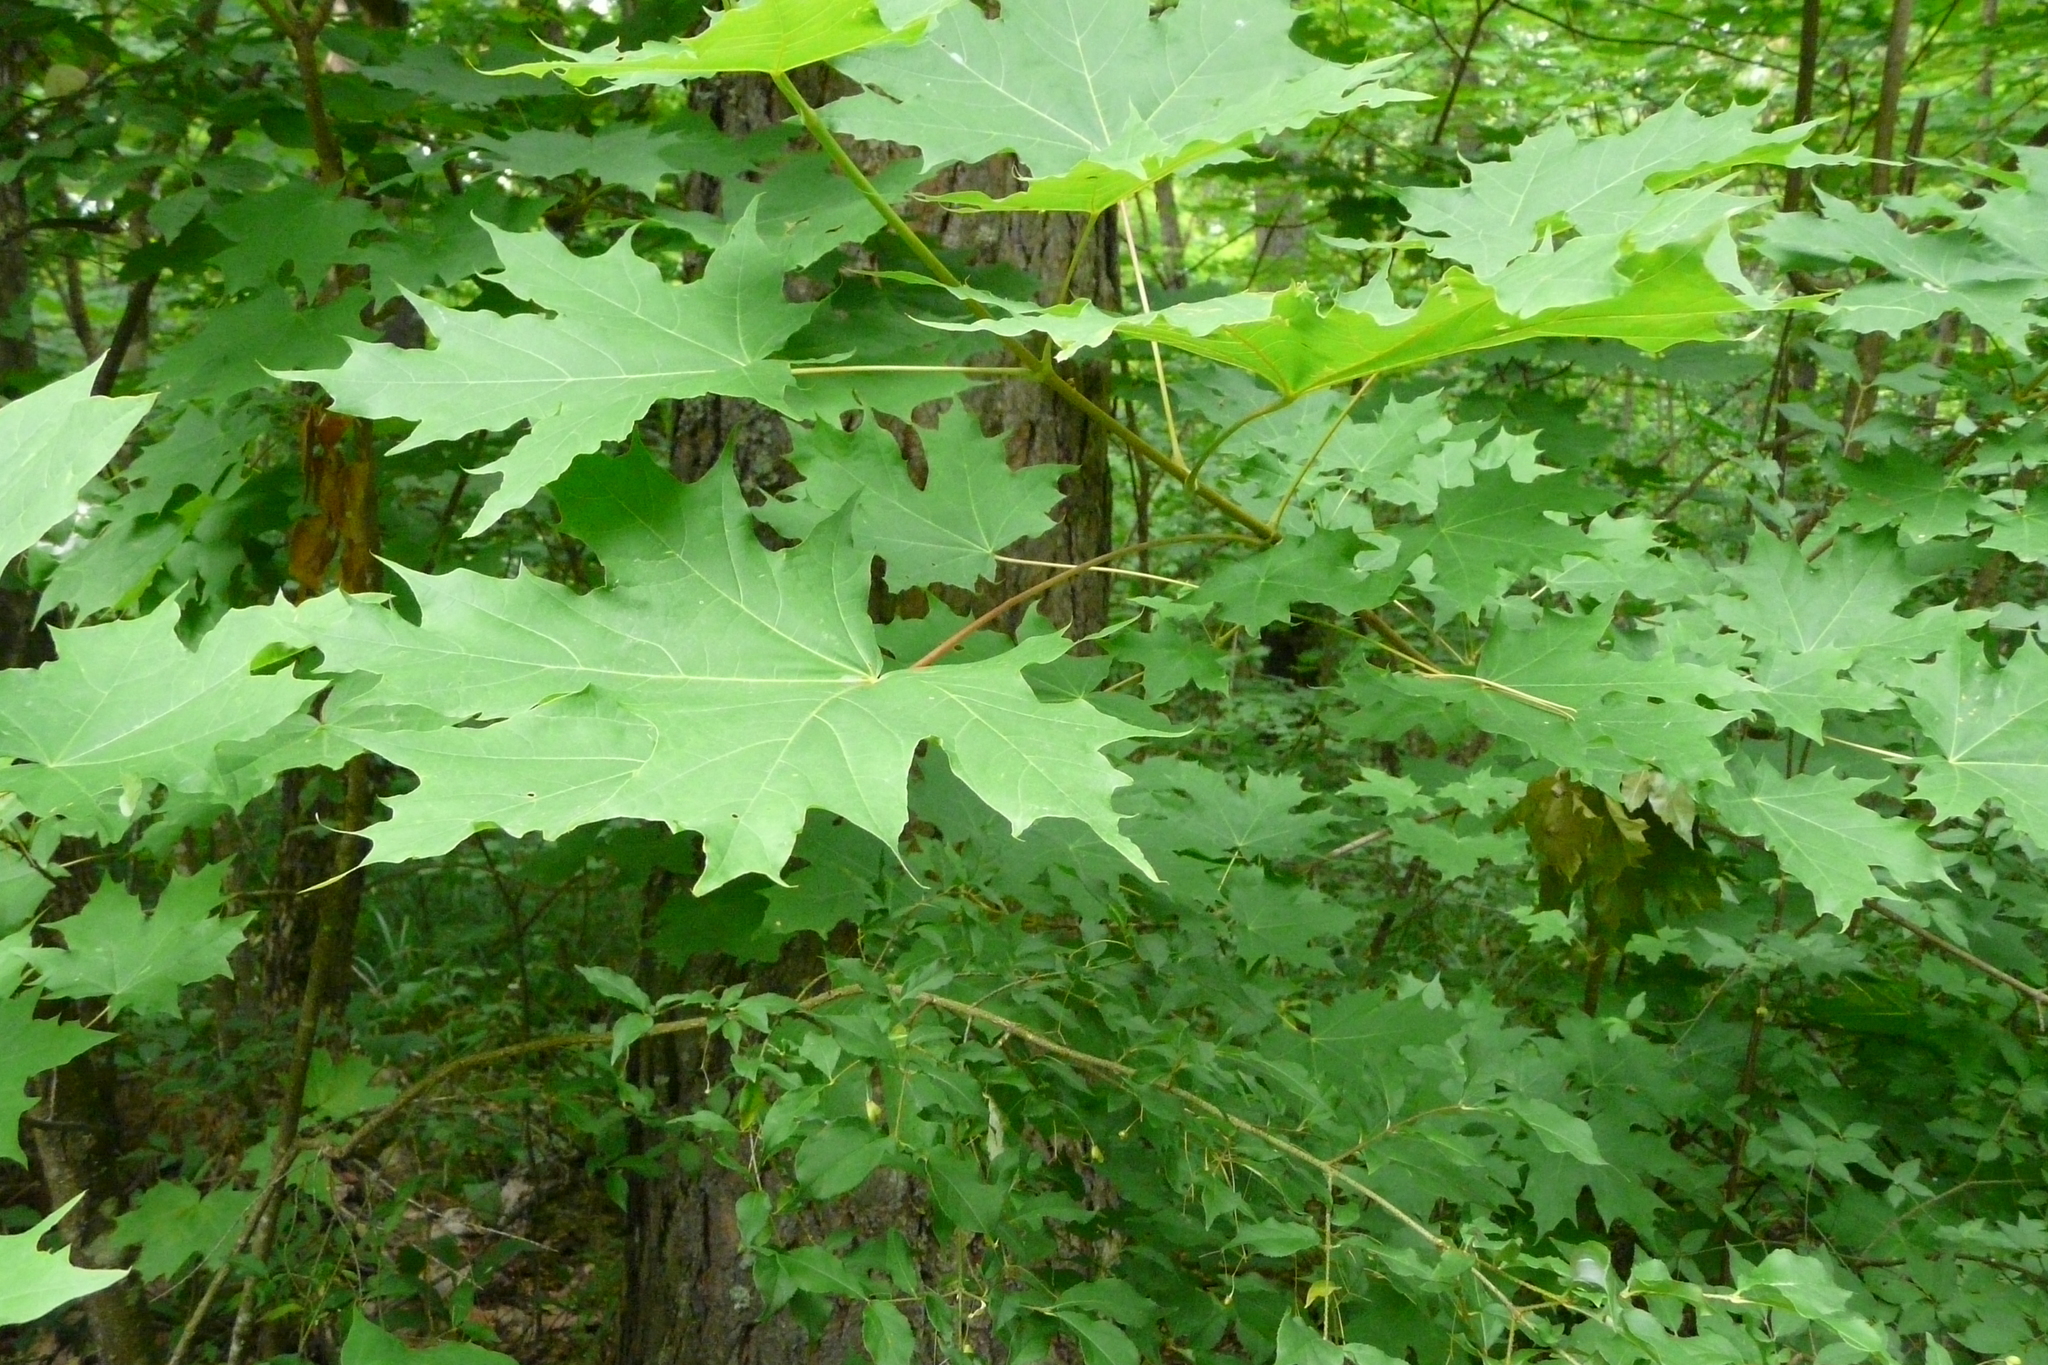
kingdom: Plantae
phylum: Tracheophyta
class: Magnoliopsida
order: Sapindales
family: Sapindaceae
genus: Acer
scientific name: Acer platanoides
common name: Norway maple
